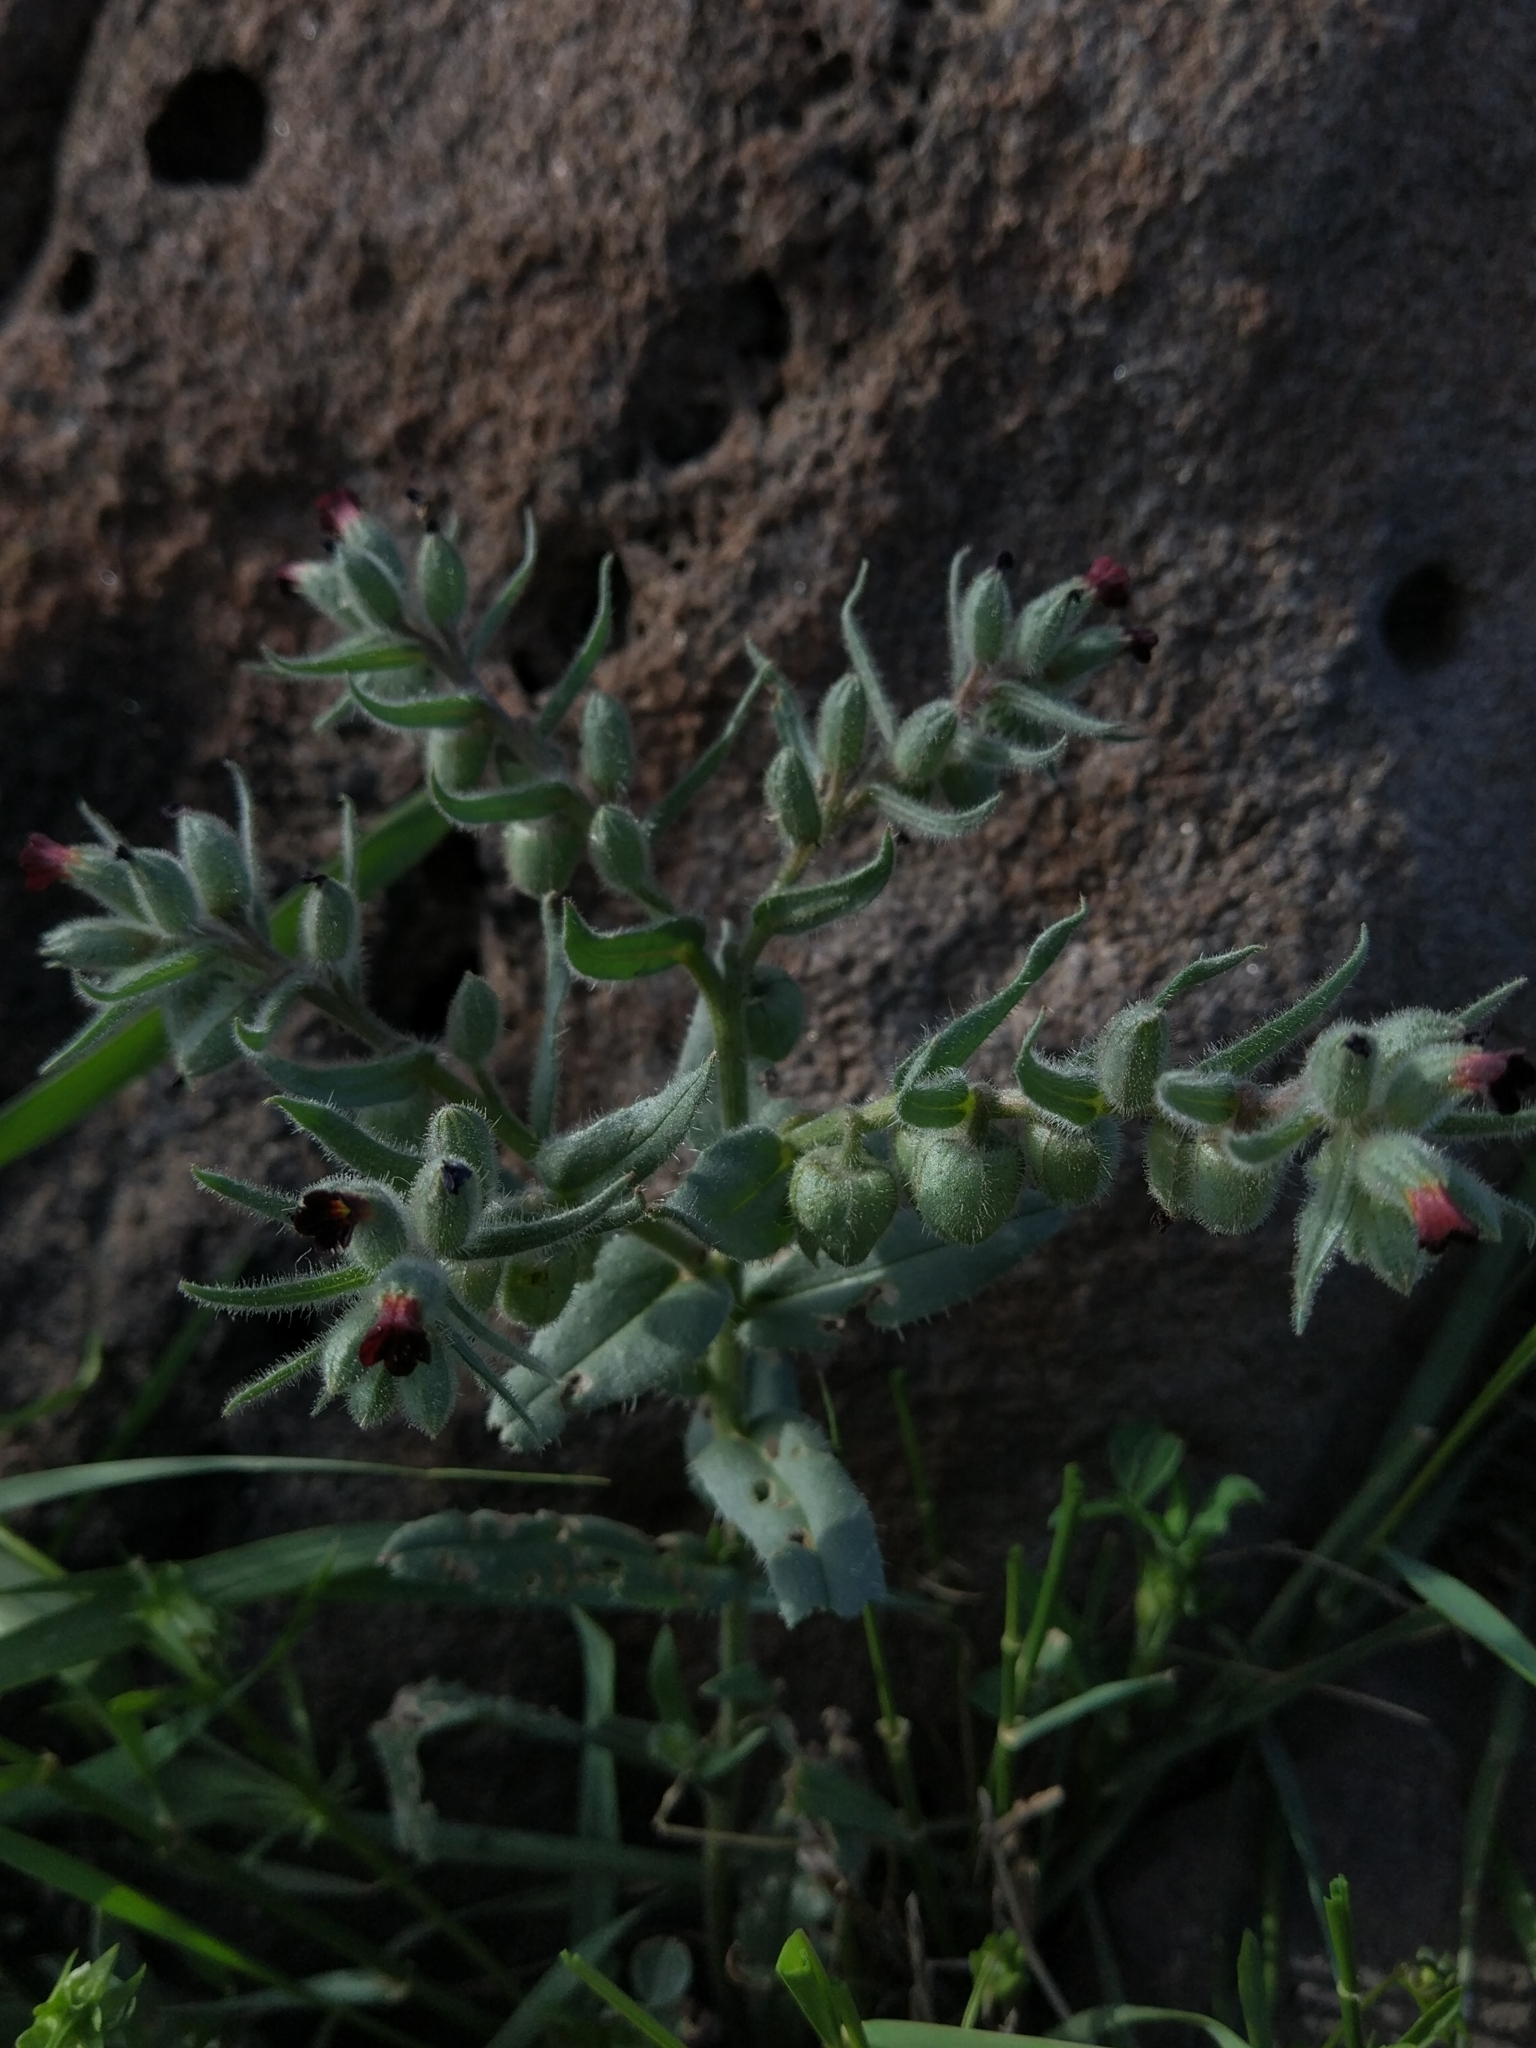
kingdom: Plantae
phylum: Tracheophyta
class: Magnoliopsida
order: Boraginales
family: Boraginaceae
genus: Nonea
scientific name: Nonea pulla
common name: Brown nonea
